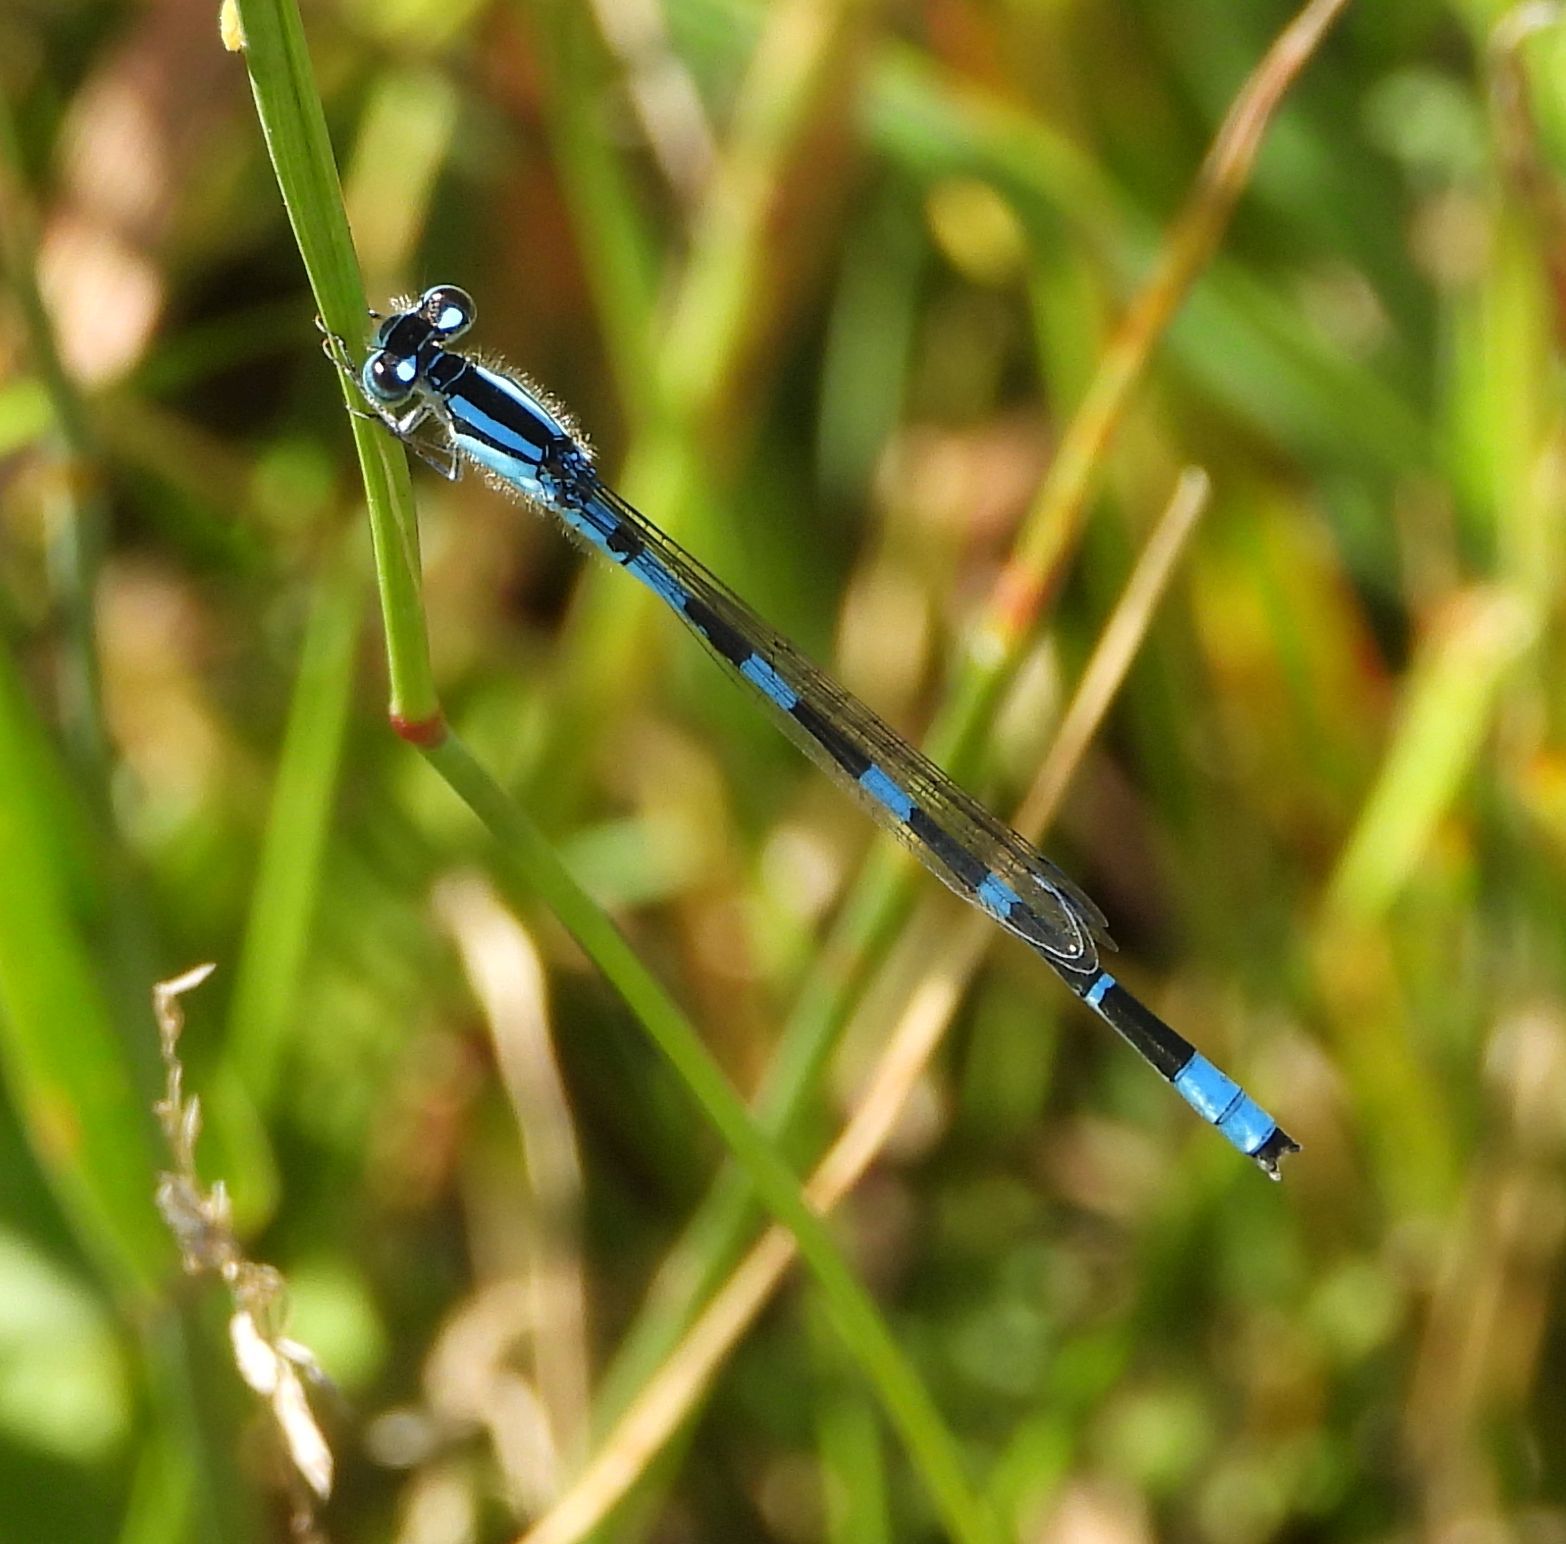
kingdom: Animalia
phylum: Arthropoda
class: Insecta
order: Odonata
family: Coenagrionidae
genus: Enallagma
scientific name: Enallagma carunculatum
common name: Tule bluet
